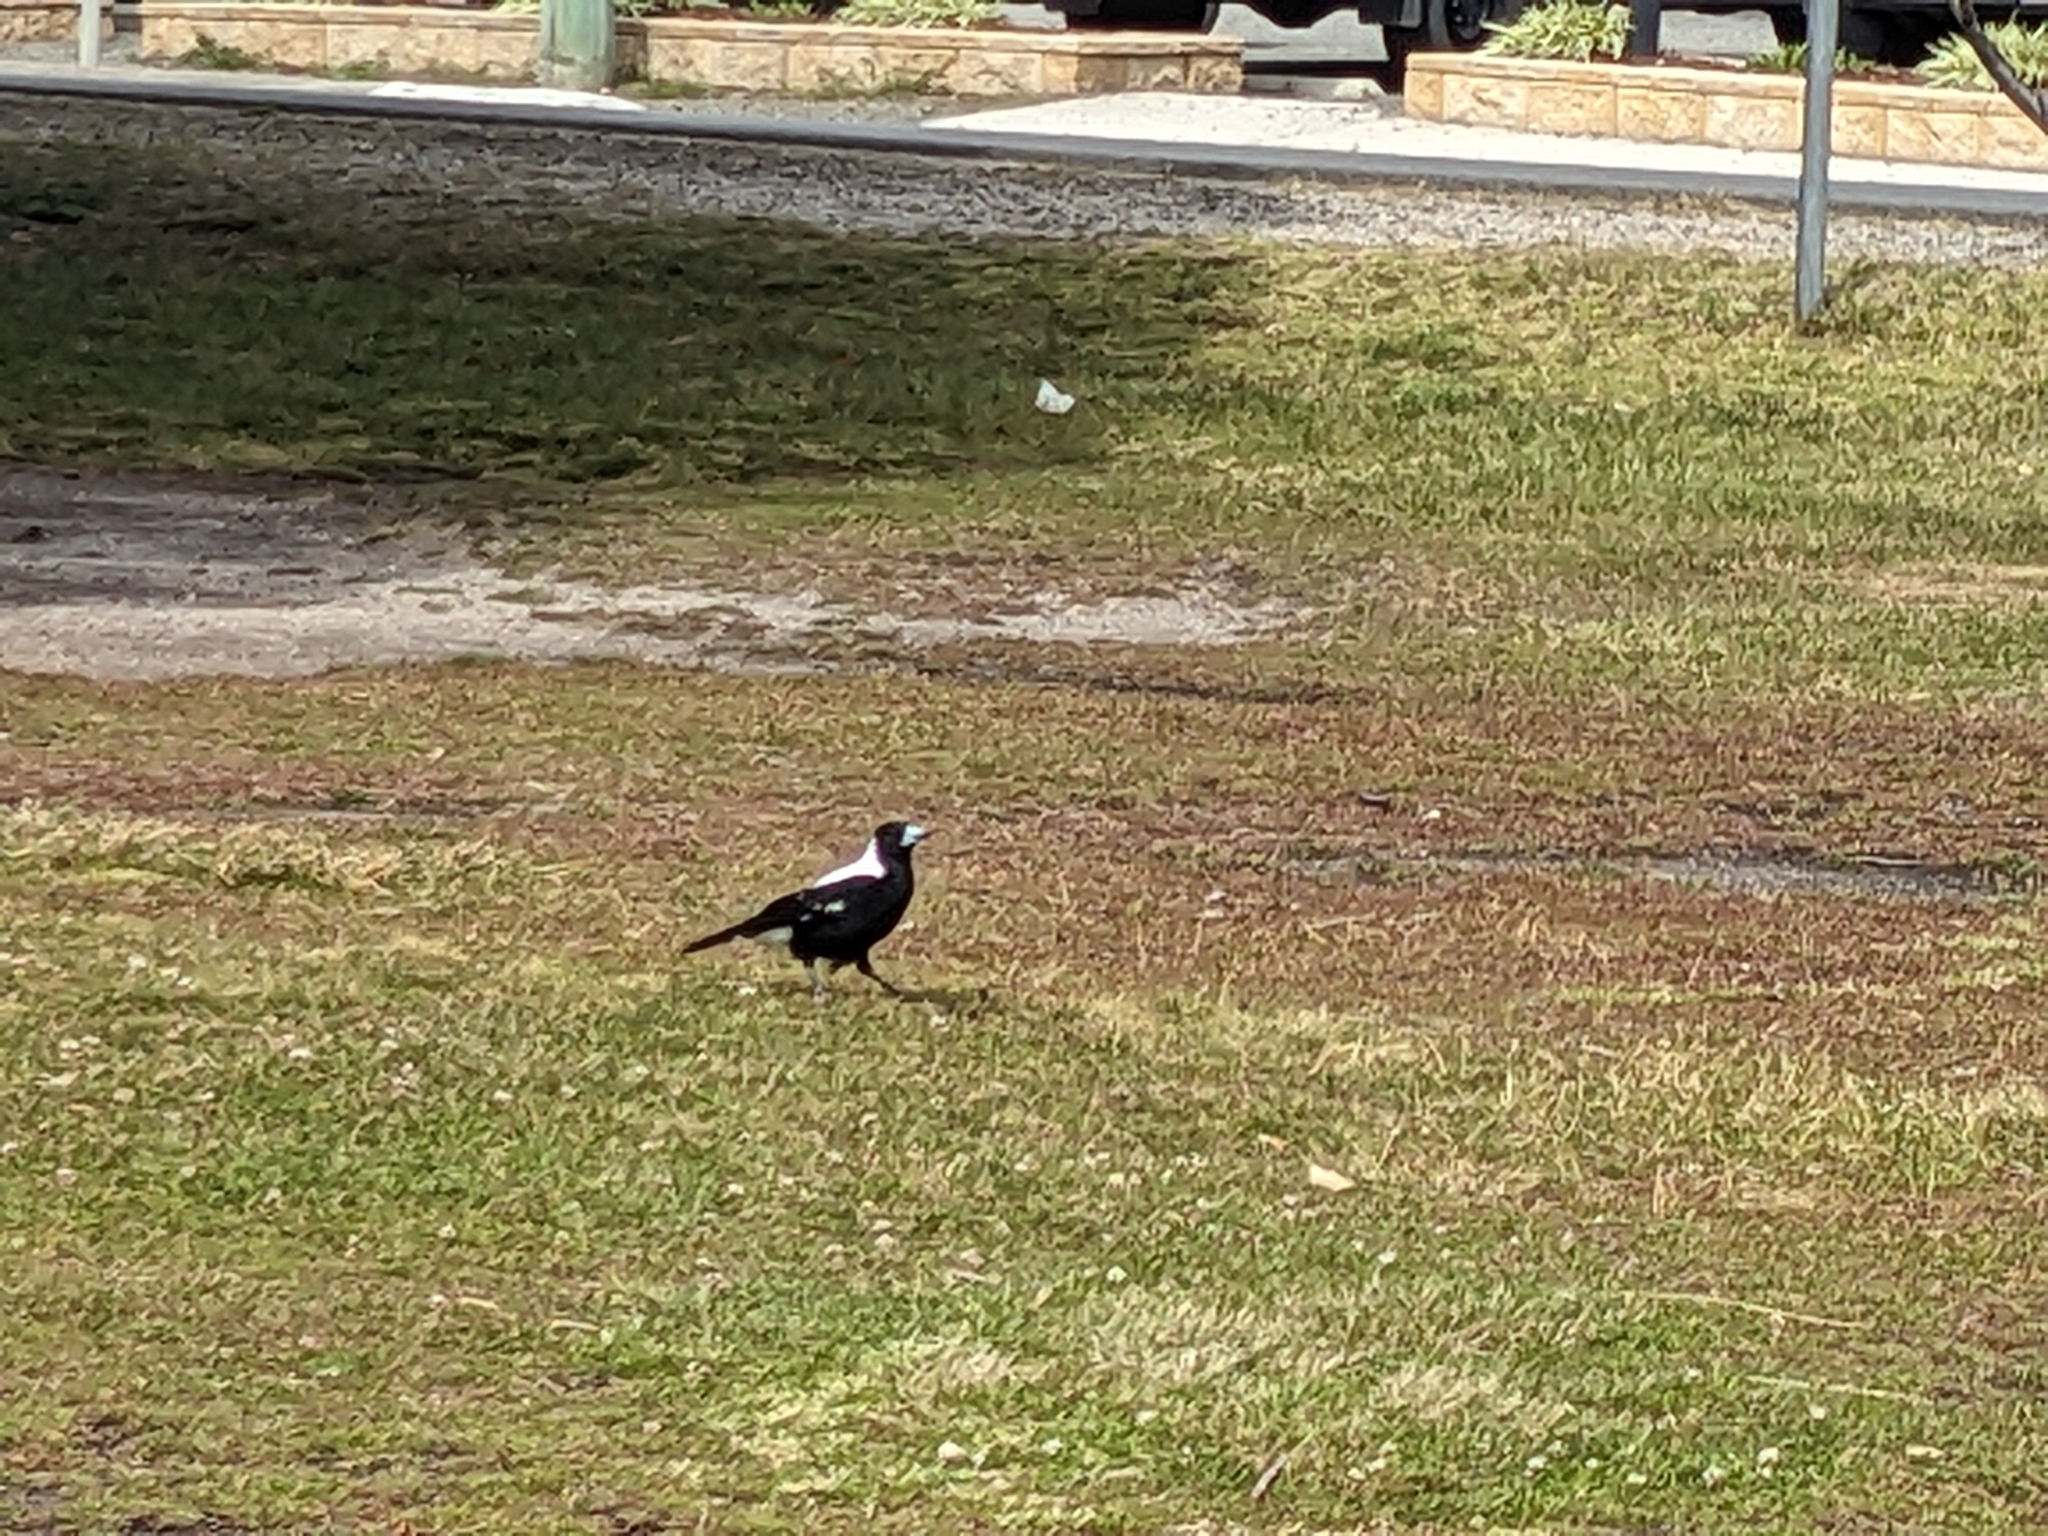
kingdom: Animalia
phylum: Chordata
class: Aves
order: Passeriformes
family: Cracticidae
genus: Gymnorhina
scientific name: Gymnorhina tibicen
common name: Australian magpie
